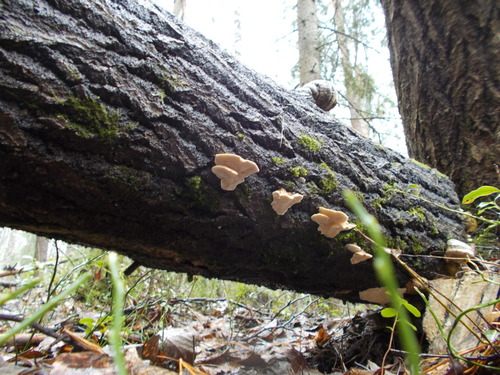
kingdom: Fungi
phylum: Basidiomycota
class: Agaricomycetes
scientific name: Agaricomycetes
